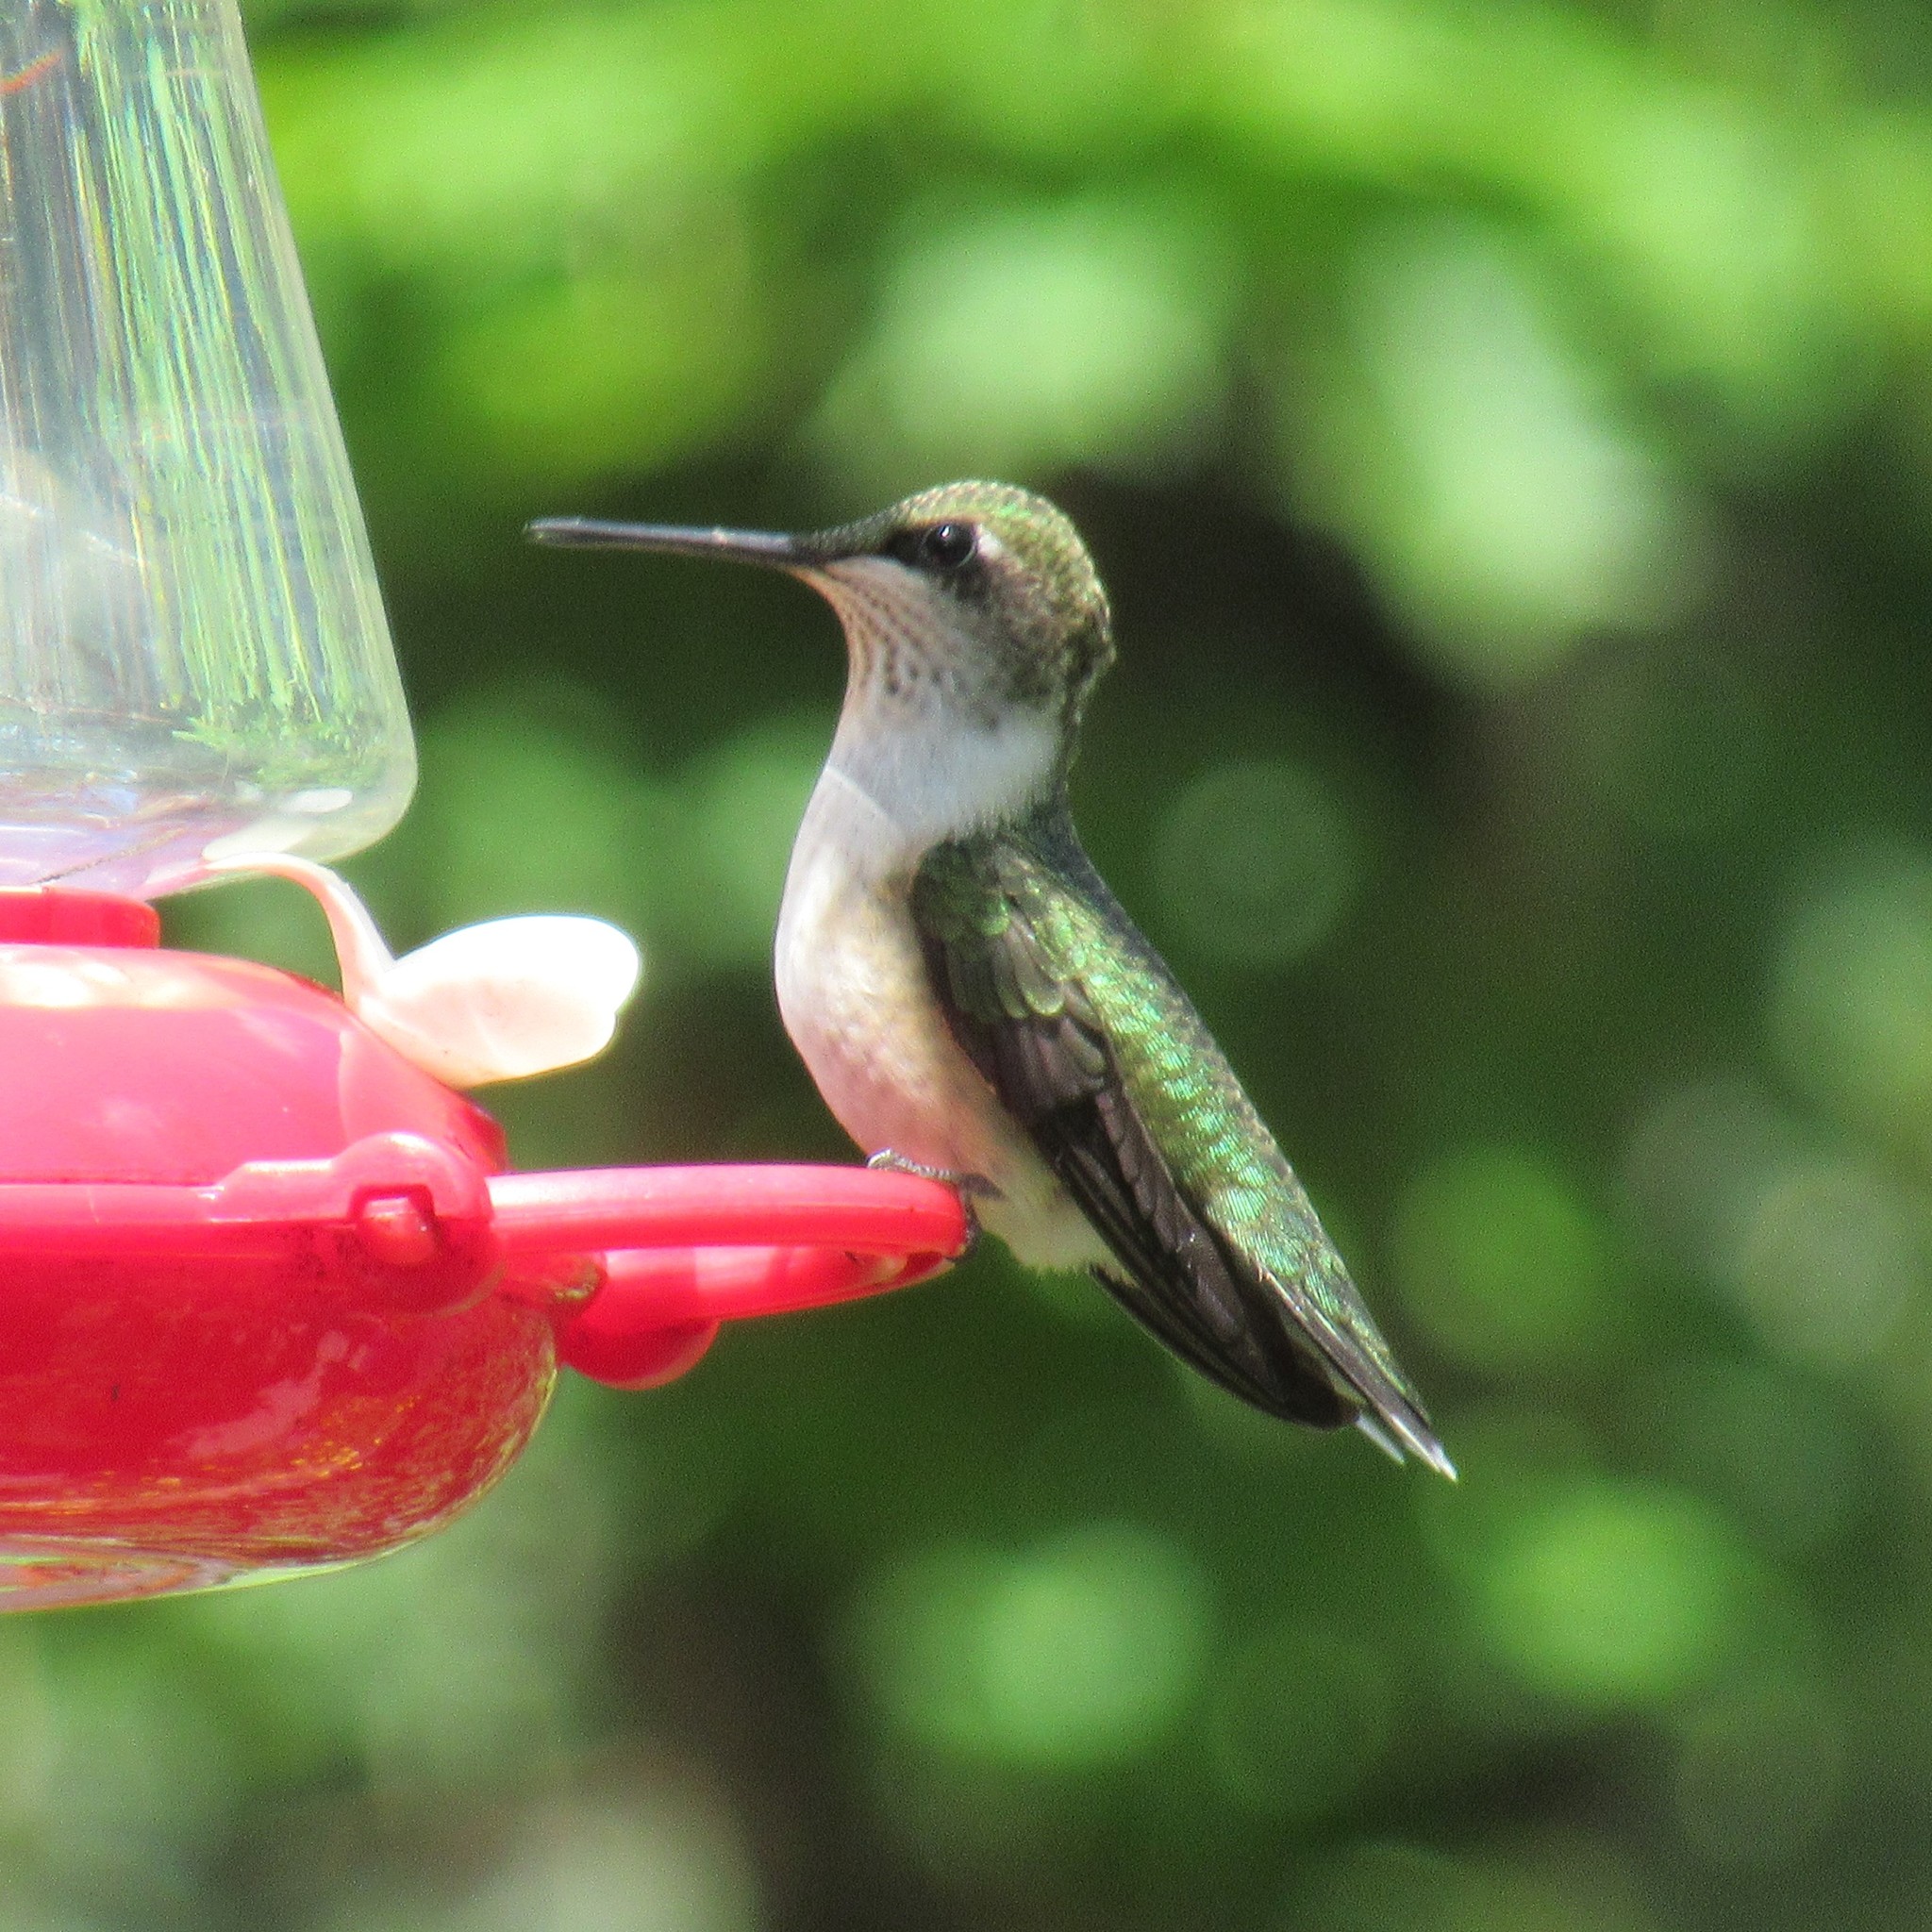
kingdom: Animalia
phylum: Chordata
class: Aves
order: Apodiformes
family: Trochilidae
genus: Archilochus
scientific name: Archilochus colubris
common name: Ruby-throated hummingbird
